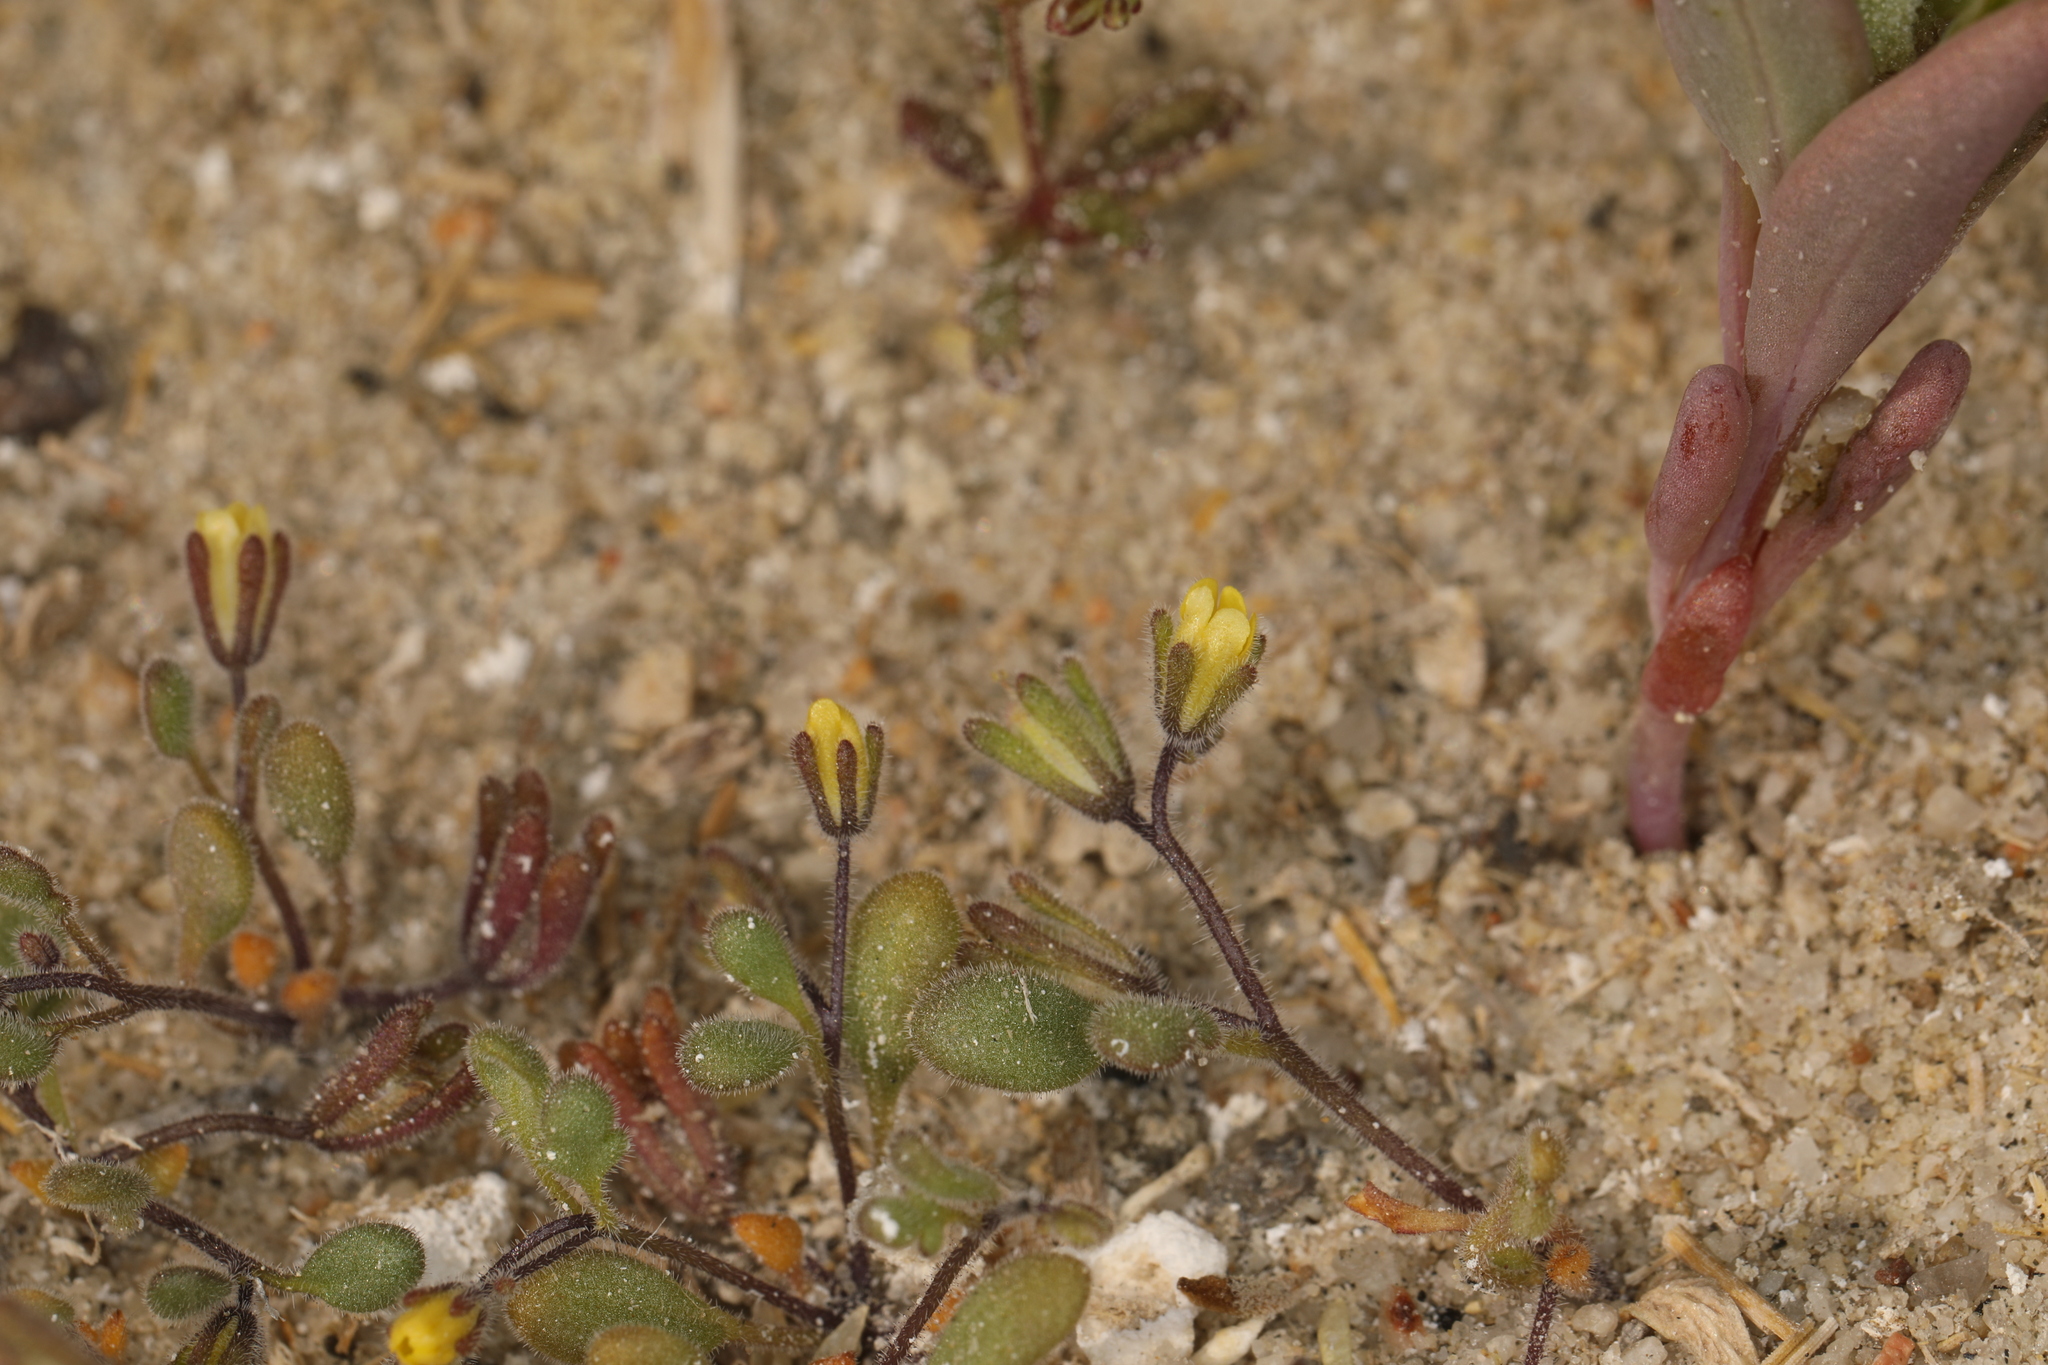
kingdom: Plantae
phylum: Tracheophyta
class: Magnoliopsida
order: Boraginales
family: Hydrophyllaceae
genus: Phacelia
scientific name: Phacelia inyoensis
